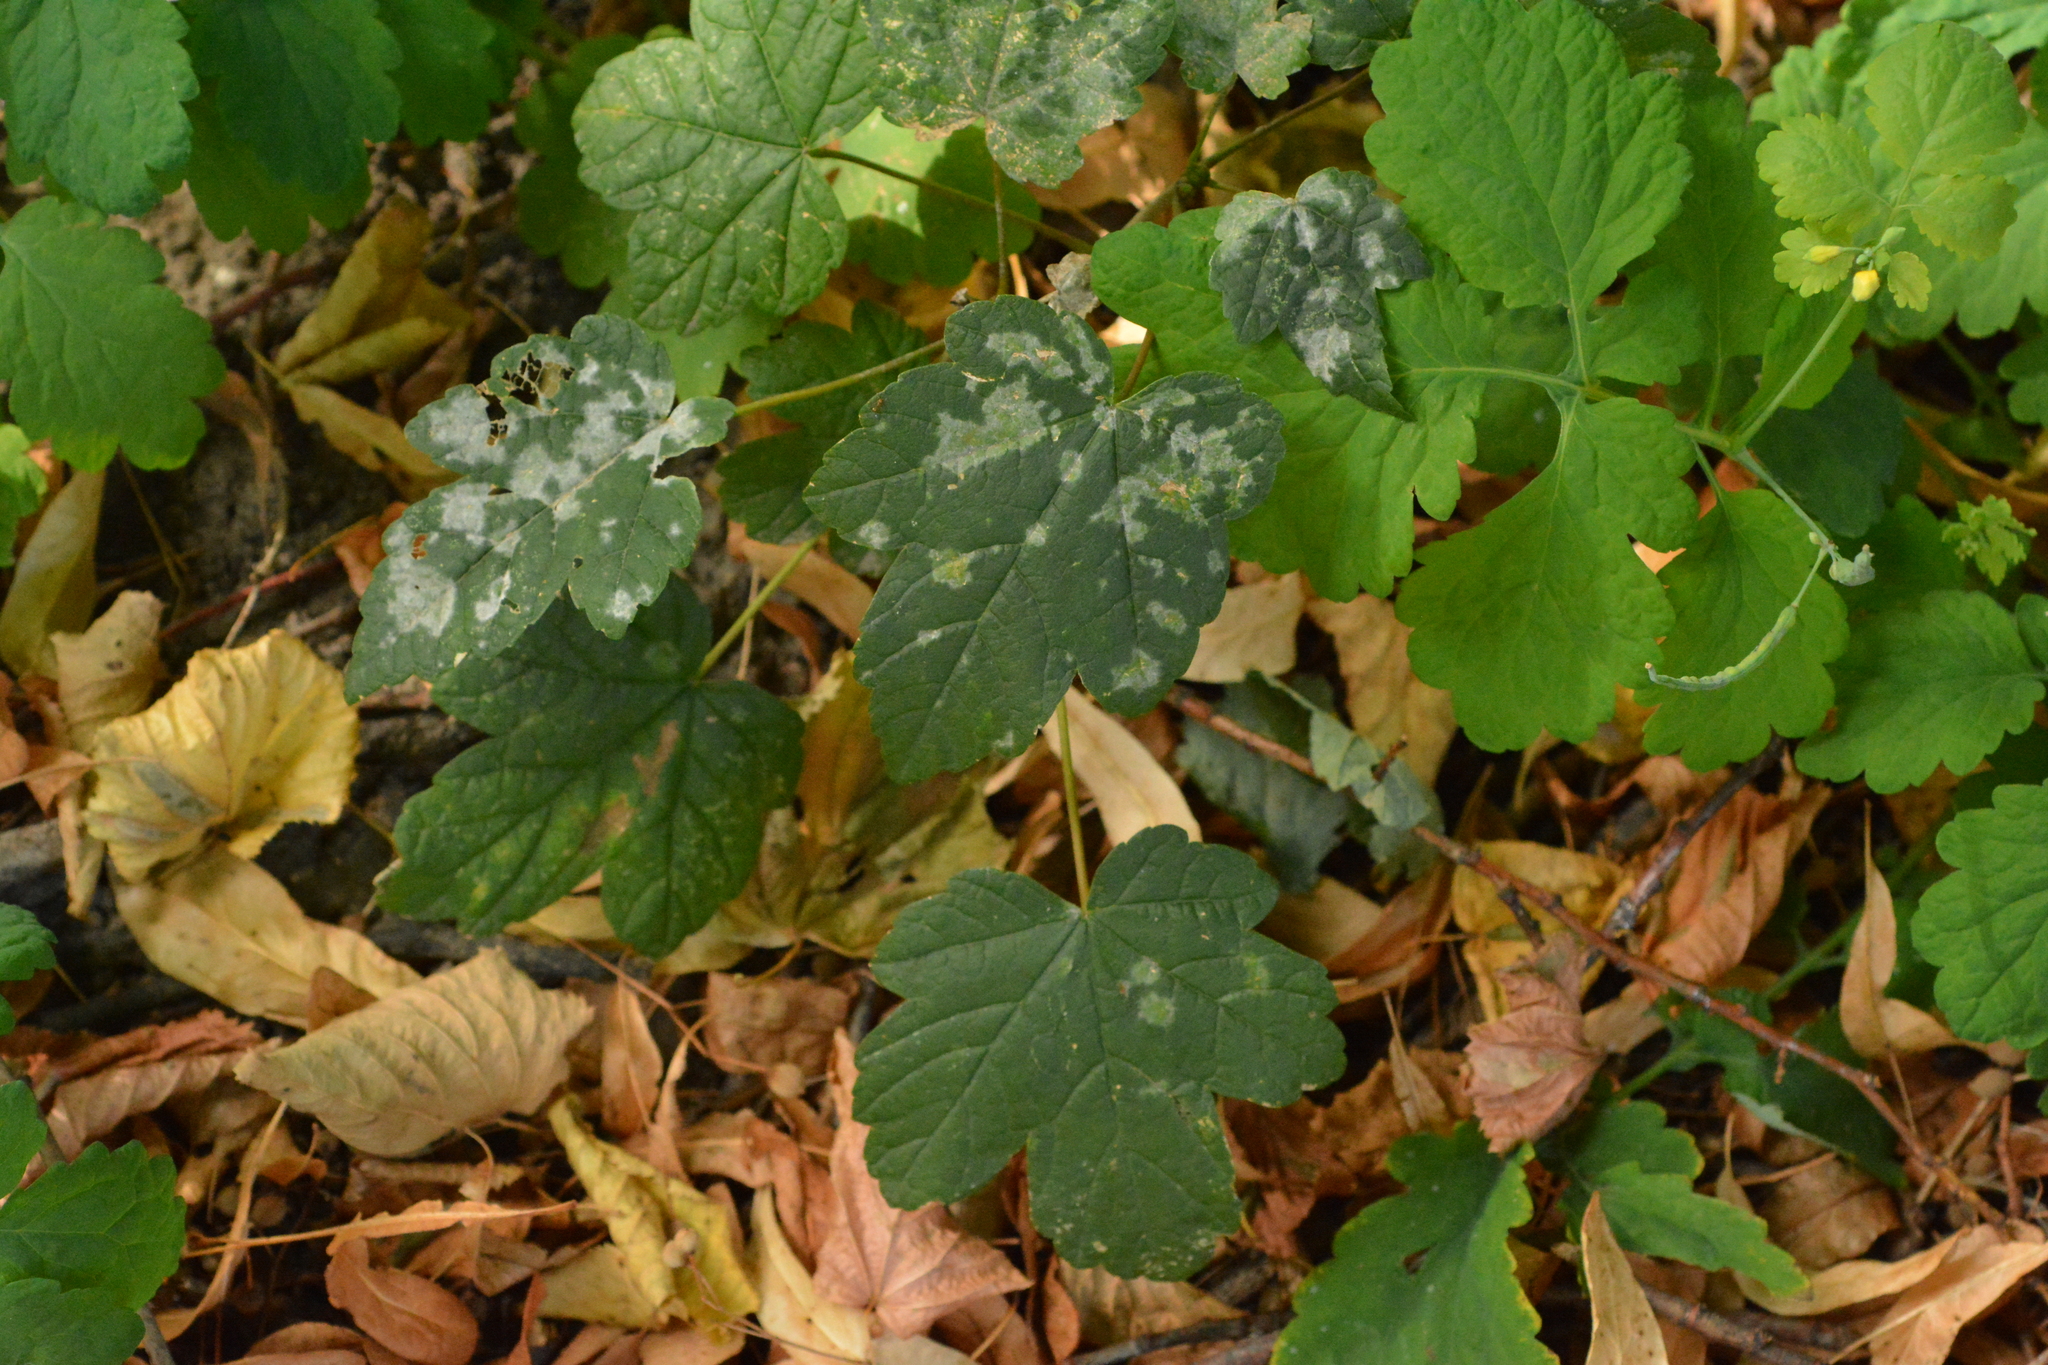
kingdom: Plantae
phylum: Tracheophyta
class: Magnoliopsida
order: Sapindales
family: Sapindaceae
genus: Acer
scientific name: Acer pseudoplatanus
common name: Sycamore
